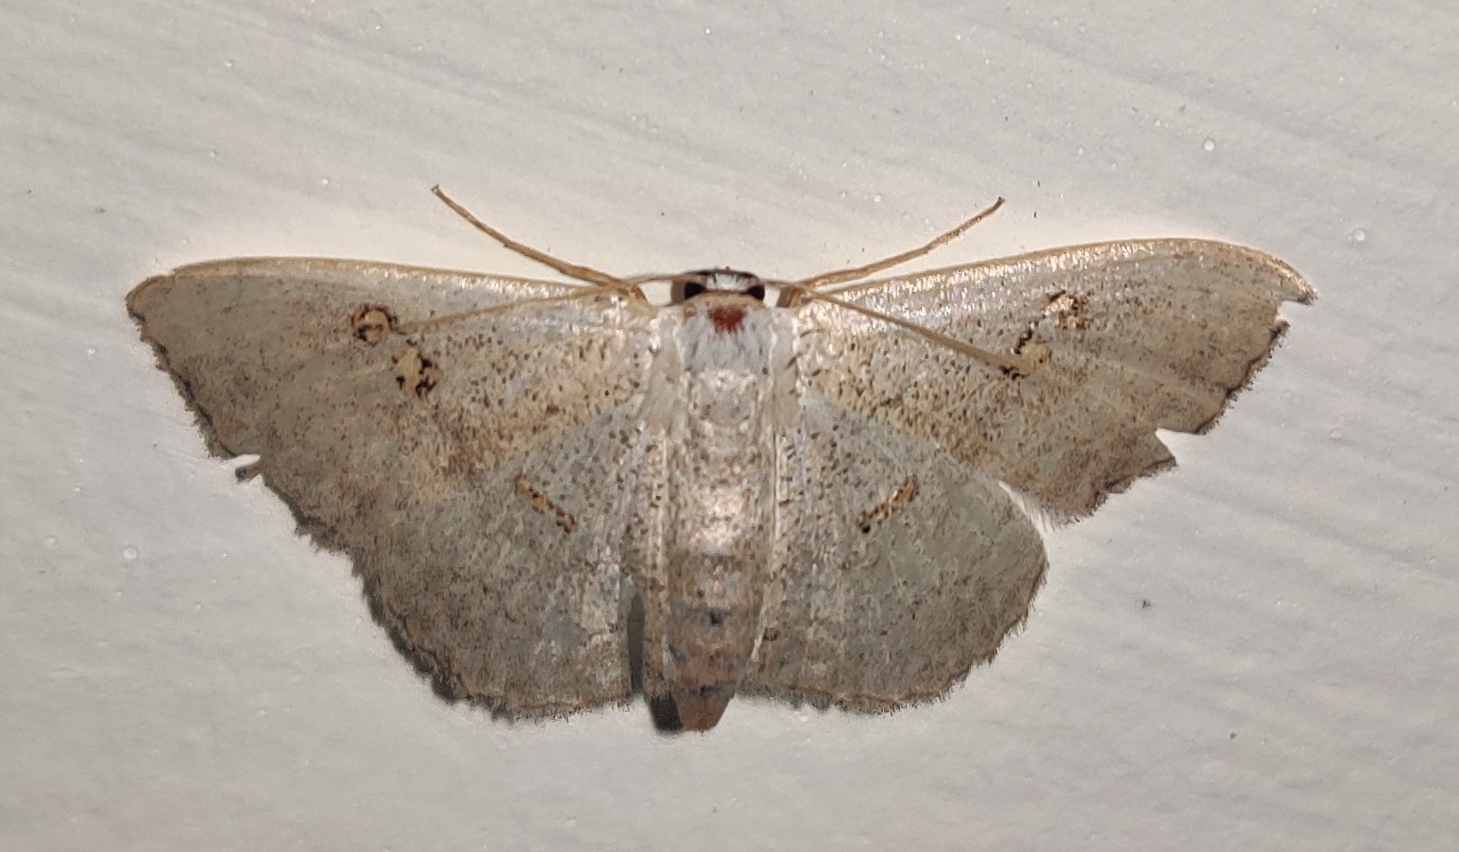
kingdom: Animalia
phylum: Arthropoda
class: Insecta
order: Lepidoptera
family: Geometridae
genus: Somatina
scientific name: Somatina omicraria
